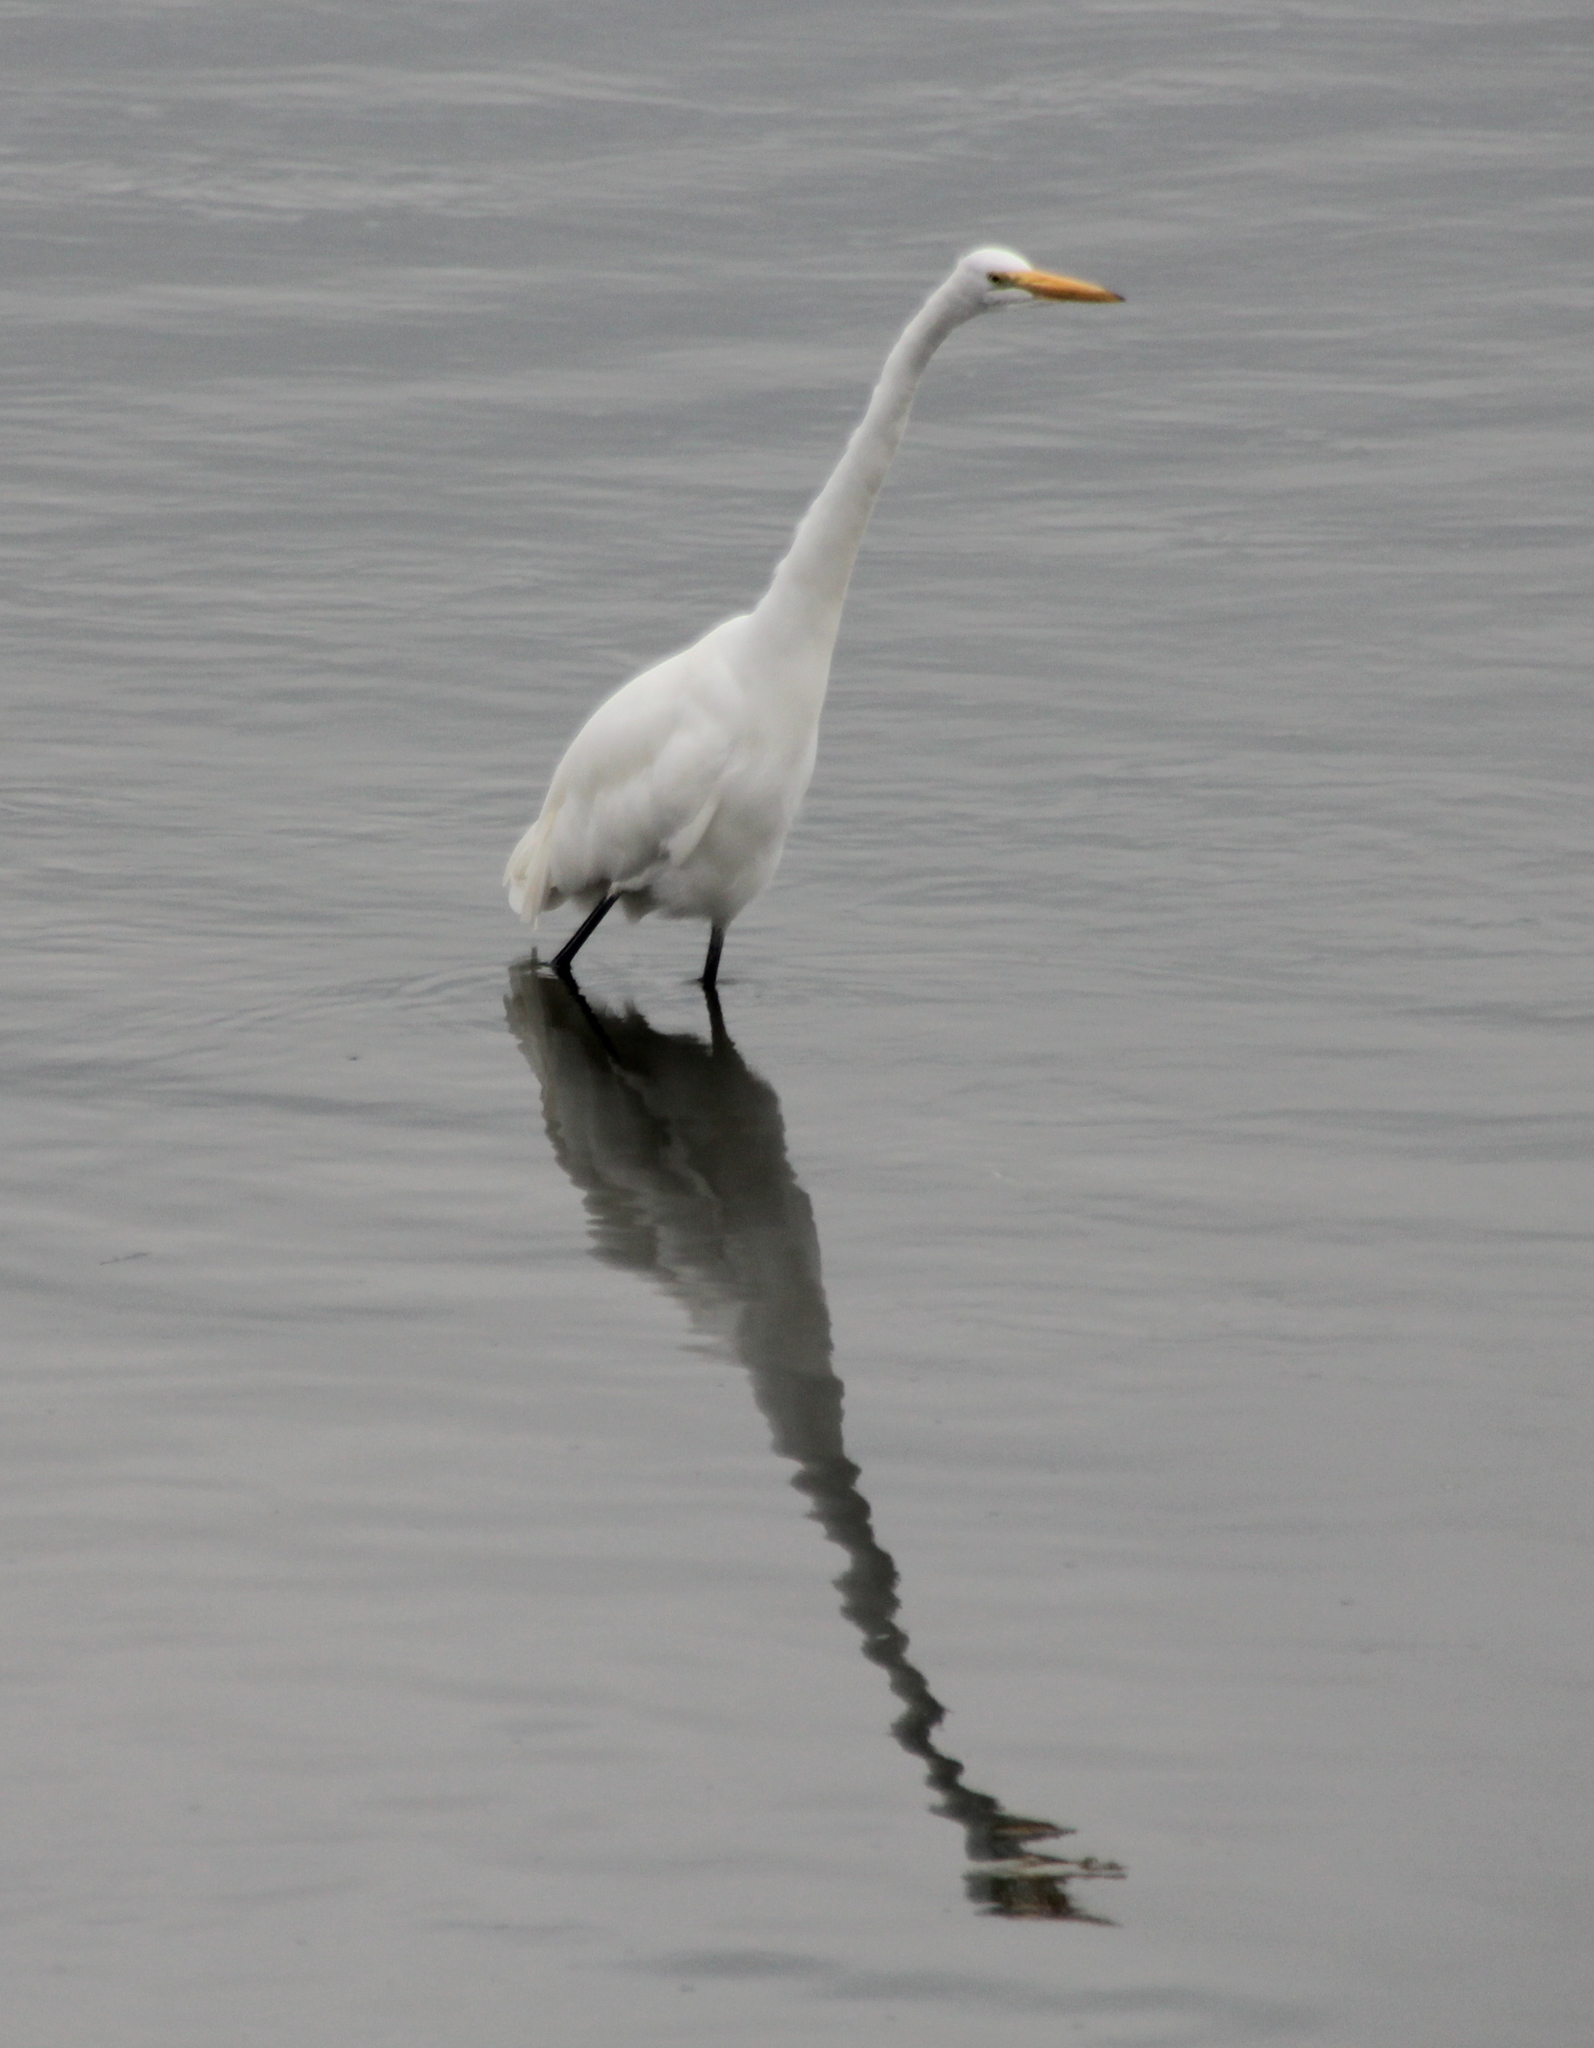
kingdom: Animalia
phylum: Chordata
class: Aves
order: Pelecaniformes
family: Ardeidae
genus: Ardea
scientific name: Ardea alba
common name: Great egret
